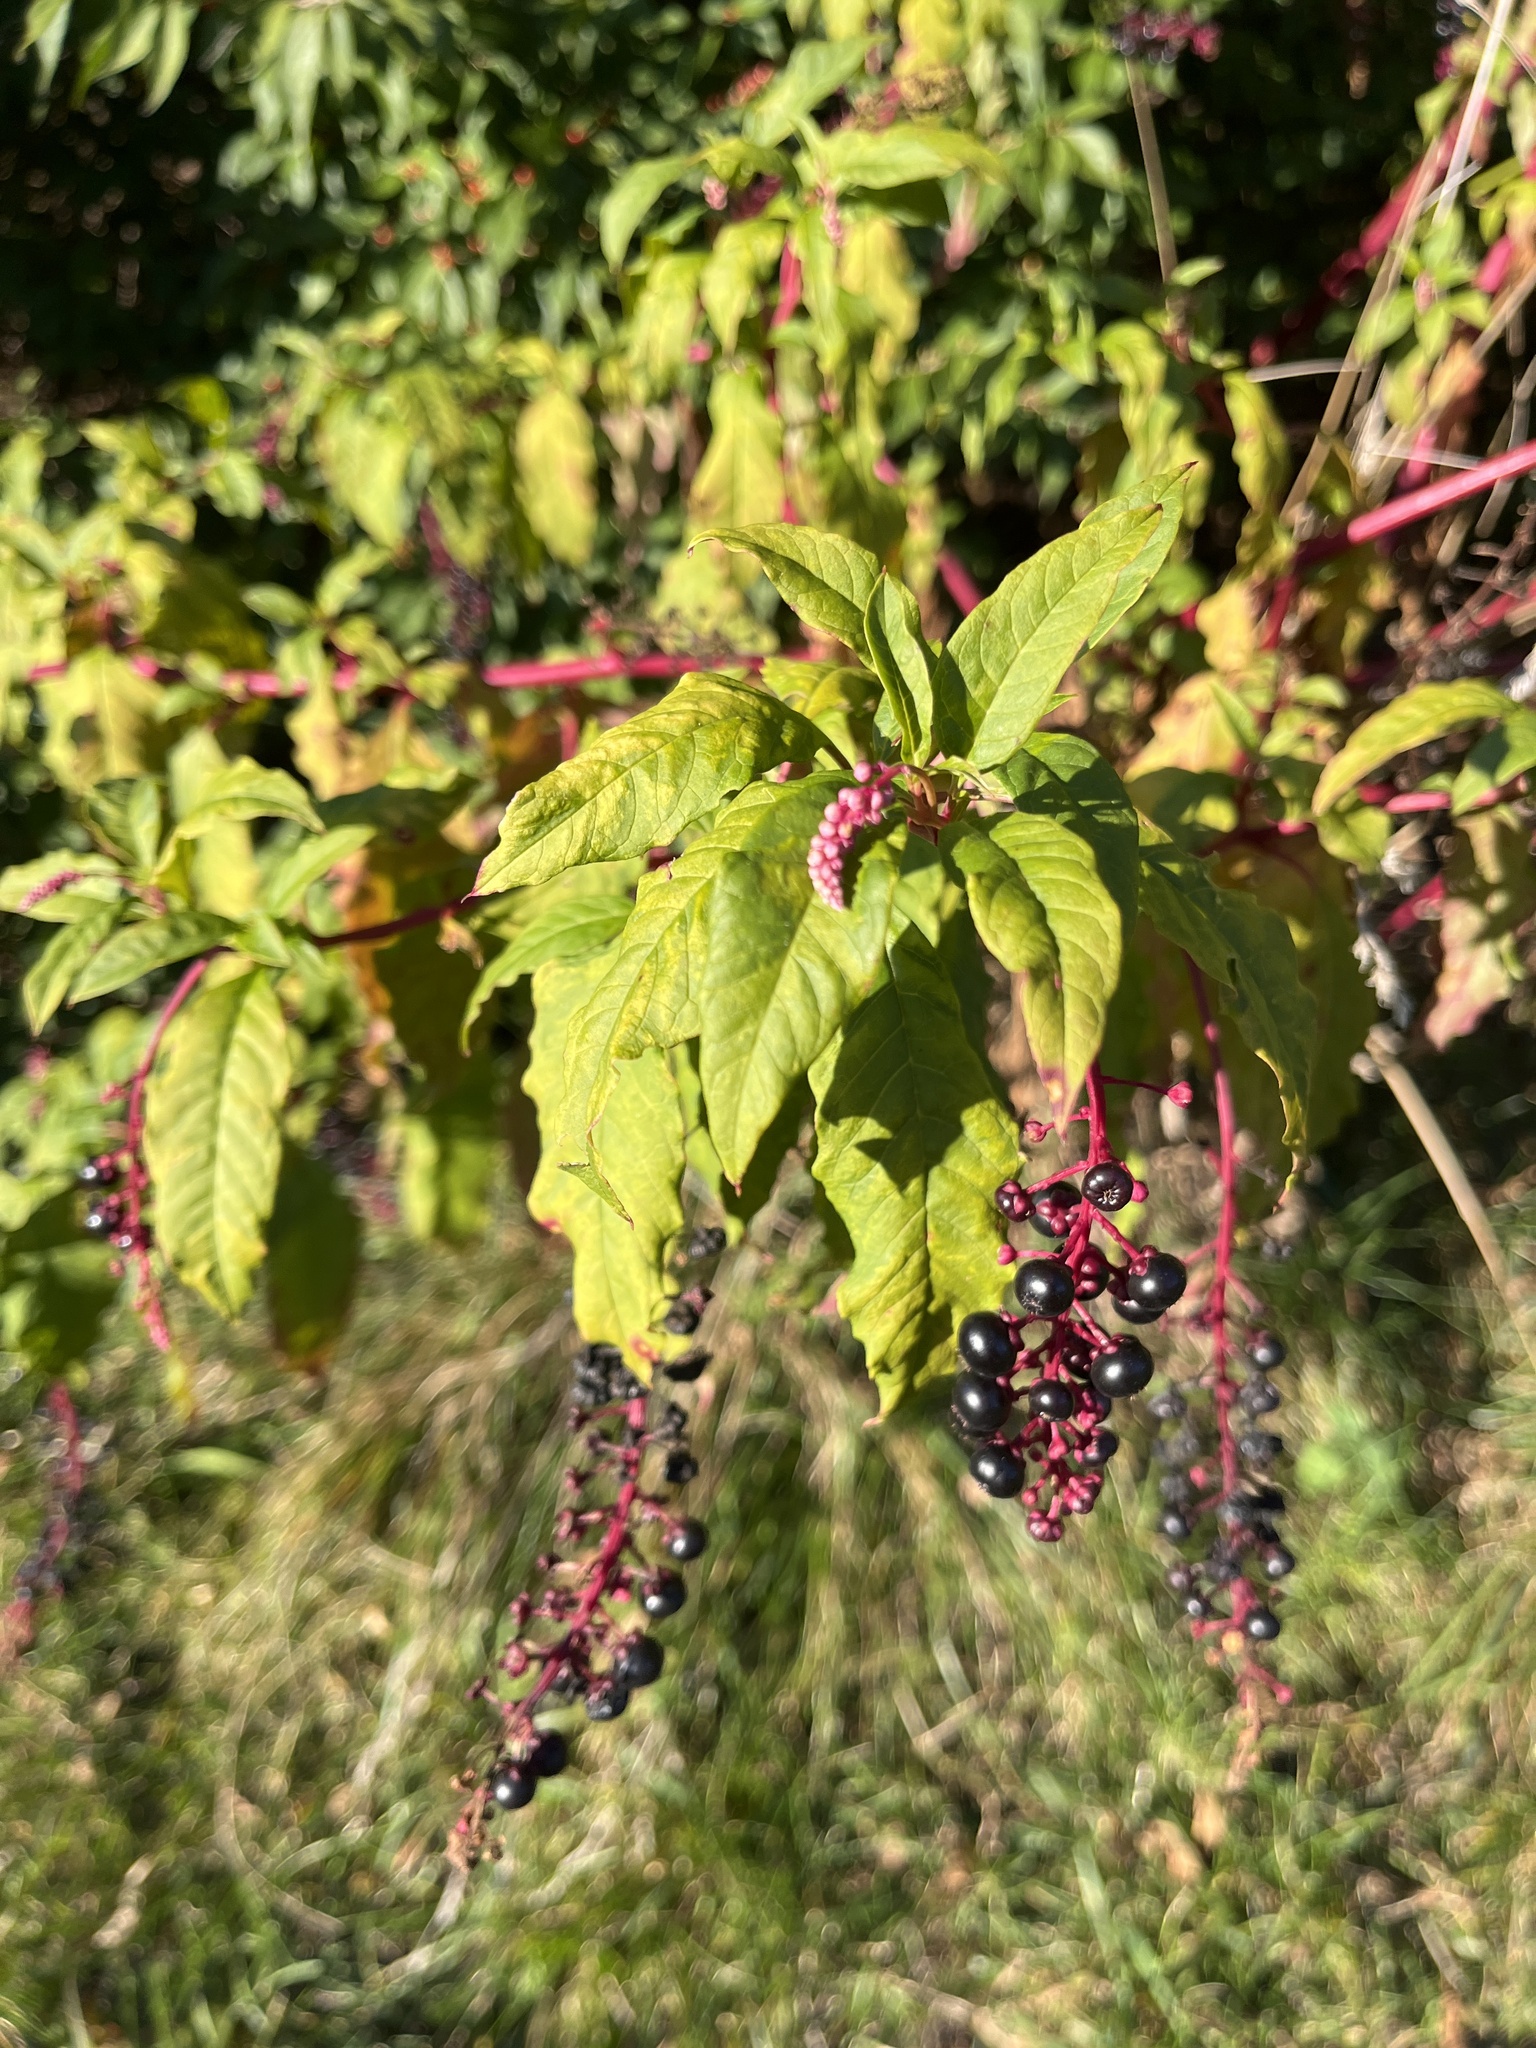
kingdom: Plantae
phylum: Tracheophyta
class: Magnoliopsida
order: Caryophyllales
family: Phytolaccaceae
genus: Phytolacca
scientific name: Phytolacca americana
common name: American pokeweed
